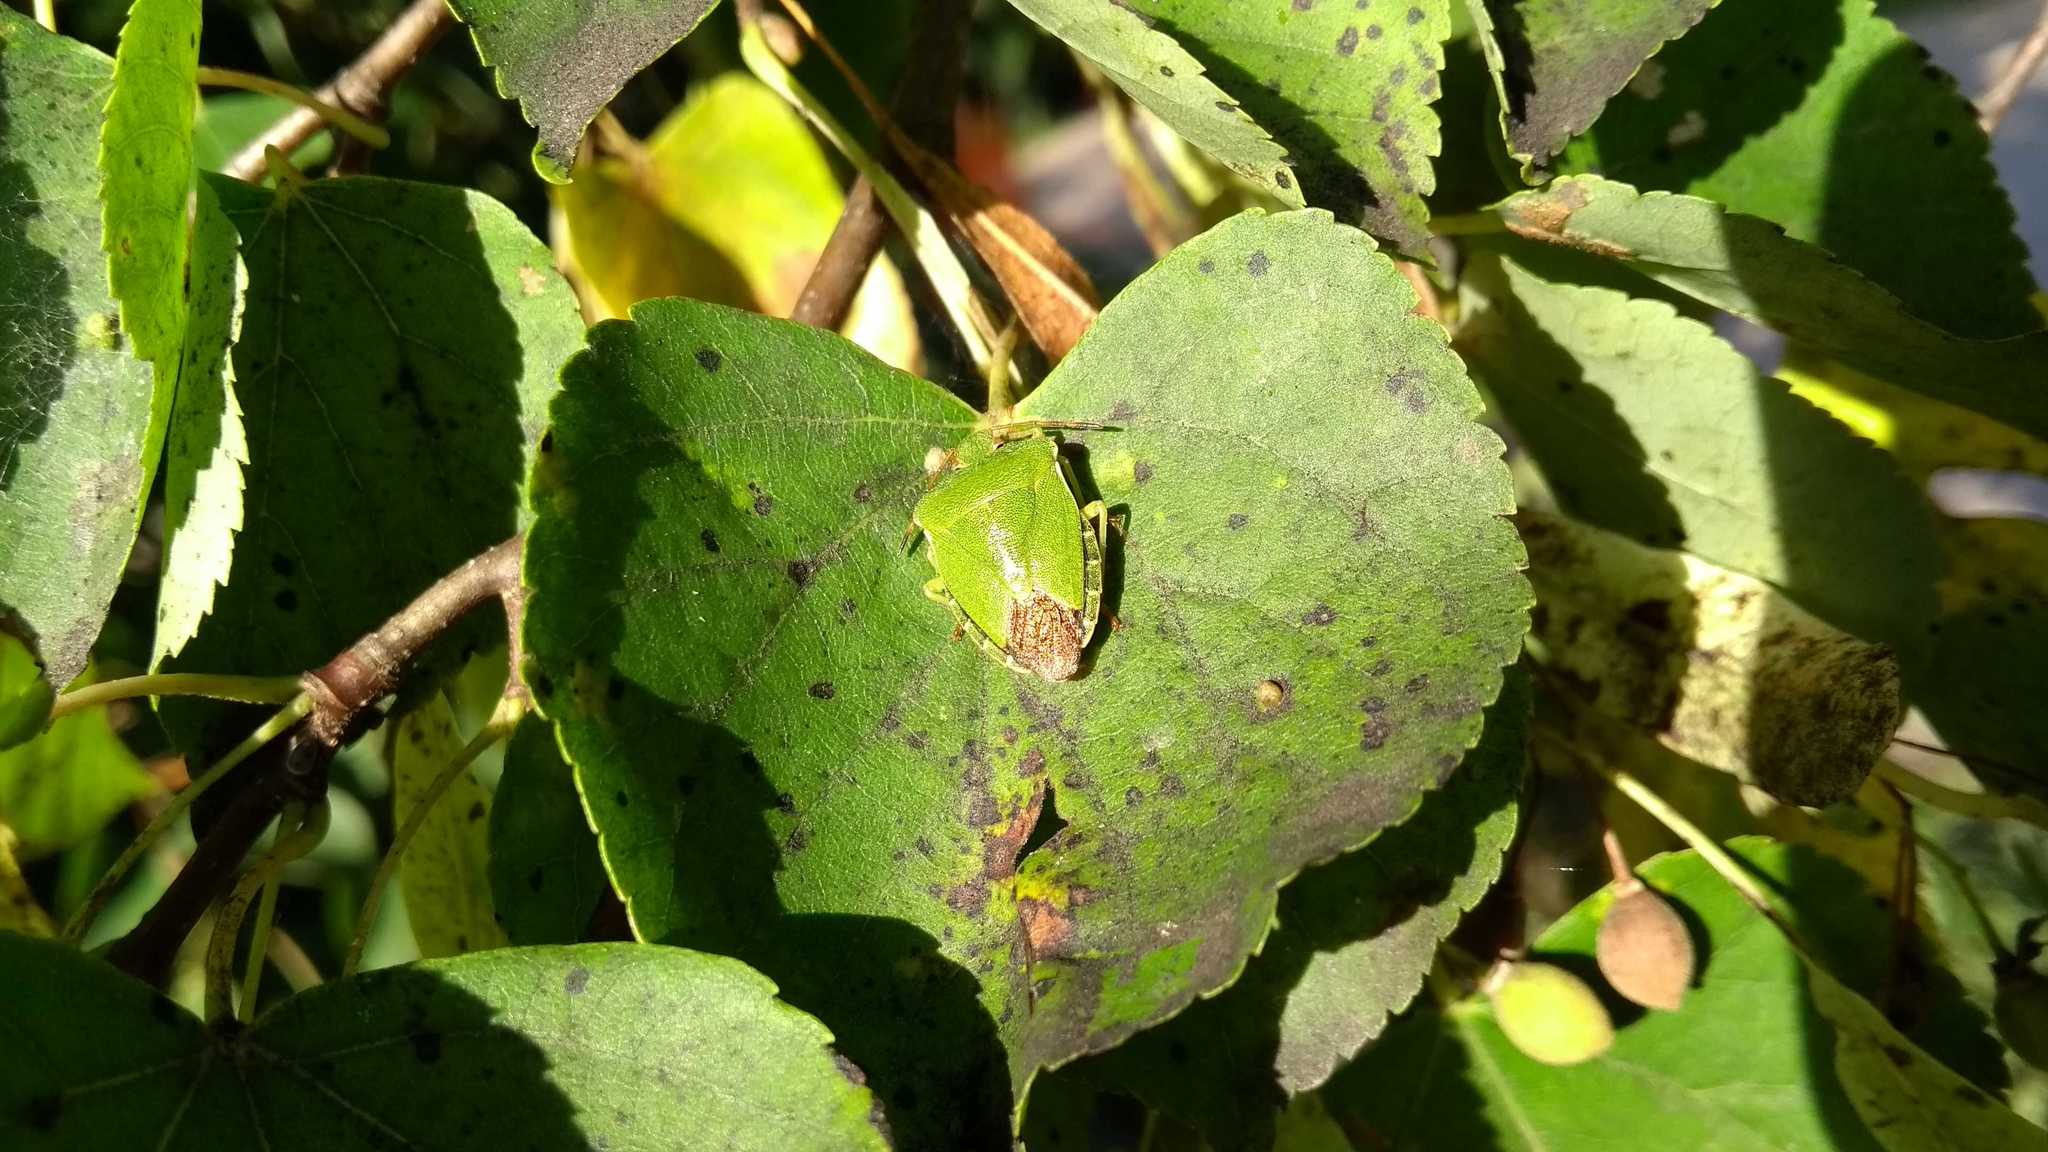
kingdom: Animalia
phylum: Arthropoda
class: Insecta
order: Hemiptera
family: Pentatomidae
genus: Palomena
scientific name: Palomena prasina
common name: Green shieldbug
